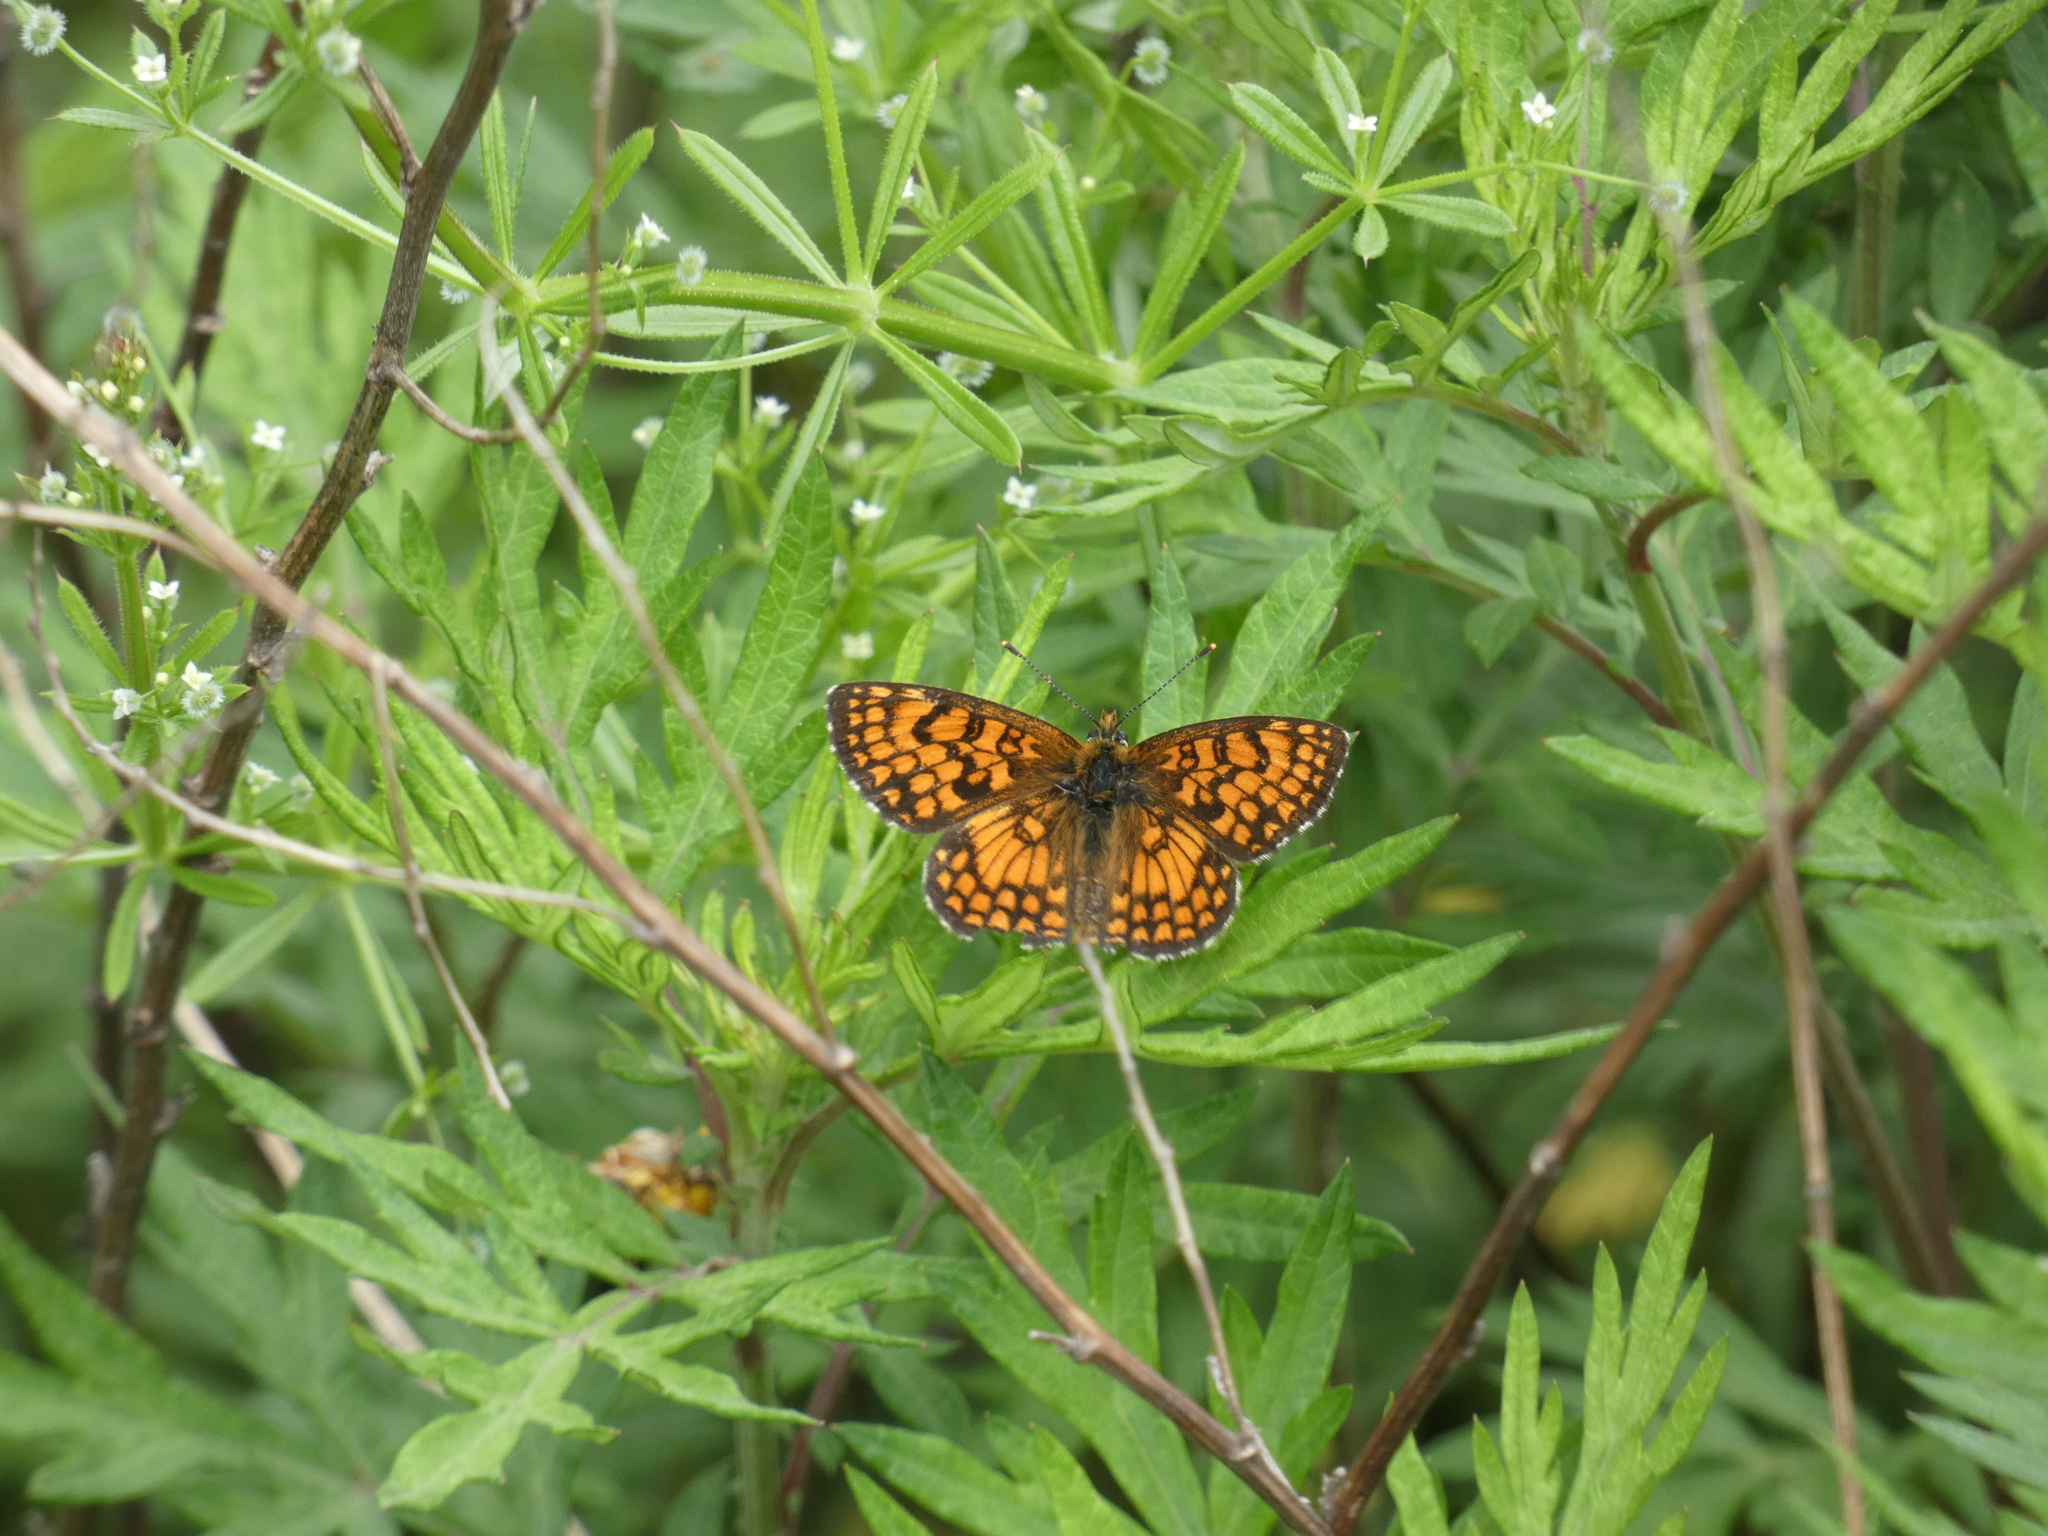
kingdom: Animalia
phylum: Arthropoda
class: Insecta
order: Lepidoptera
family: Nymphalidae
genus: Mellicta
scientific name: Mellicta athalia
